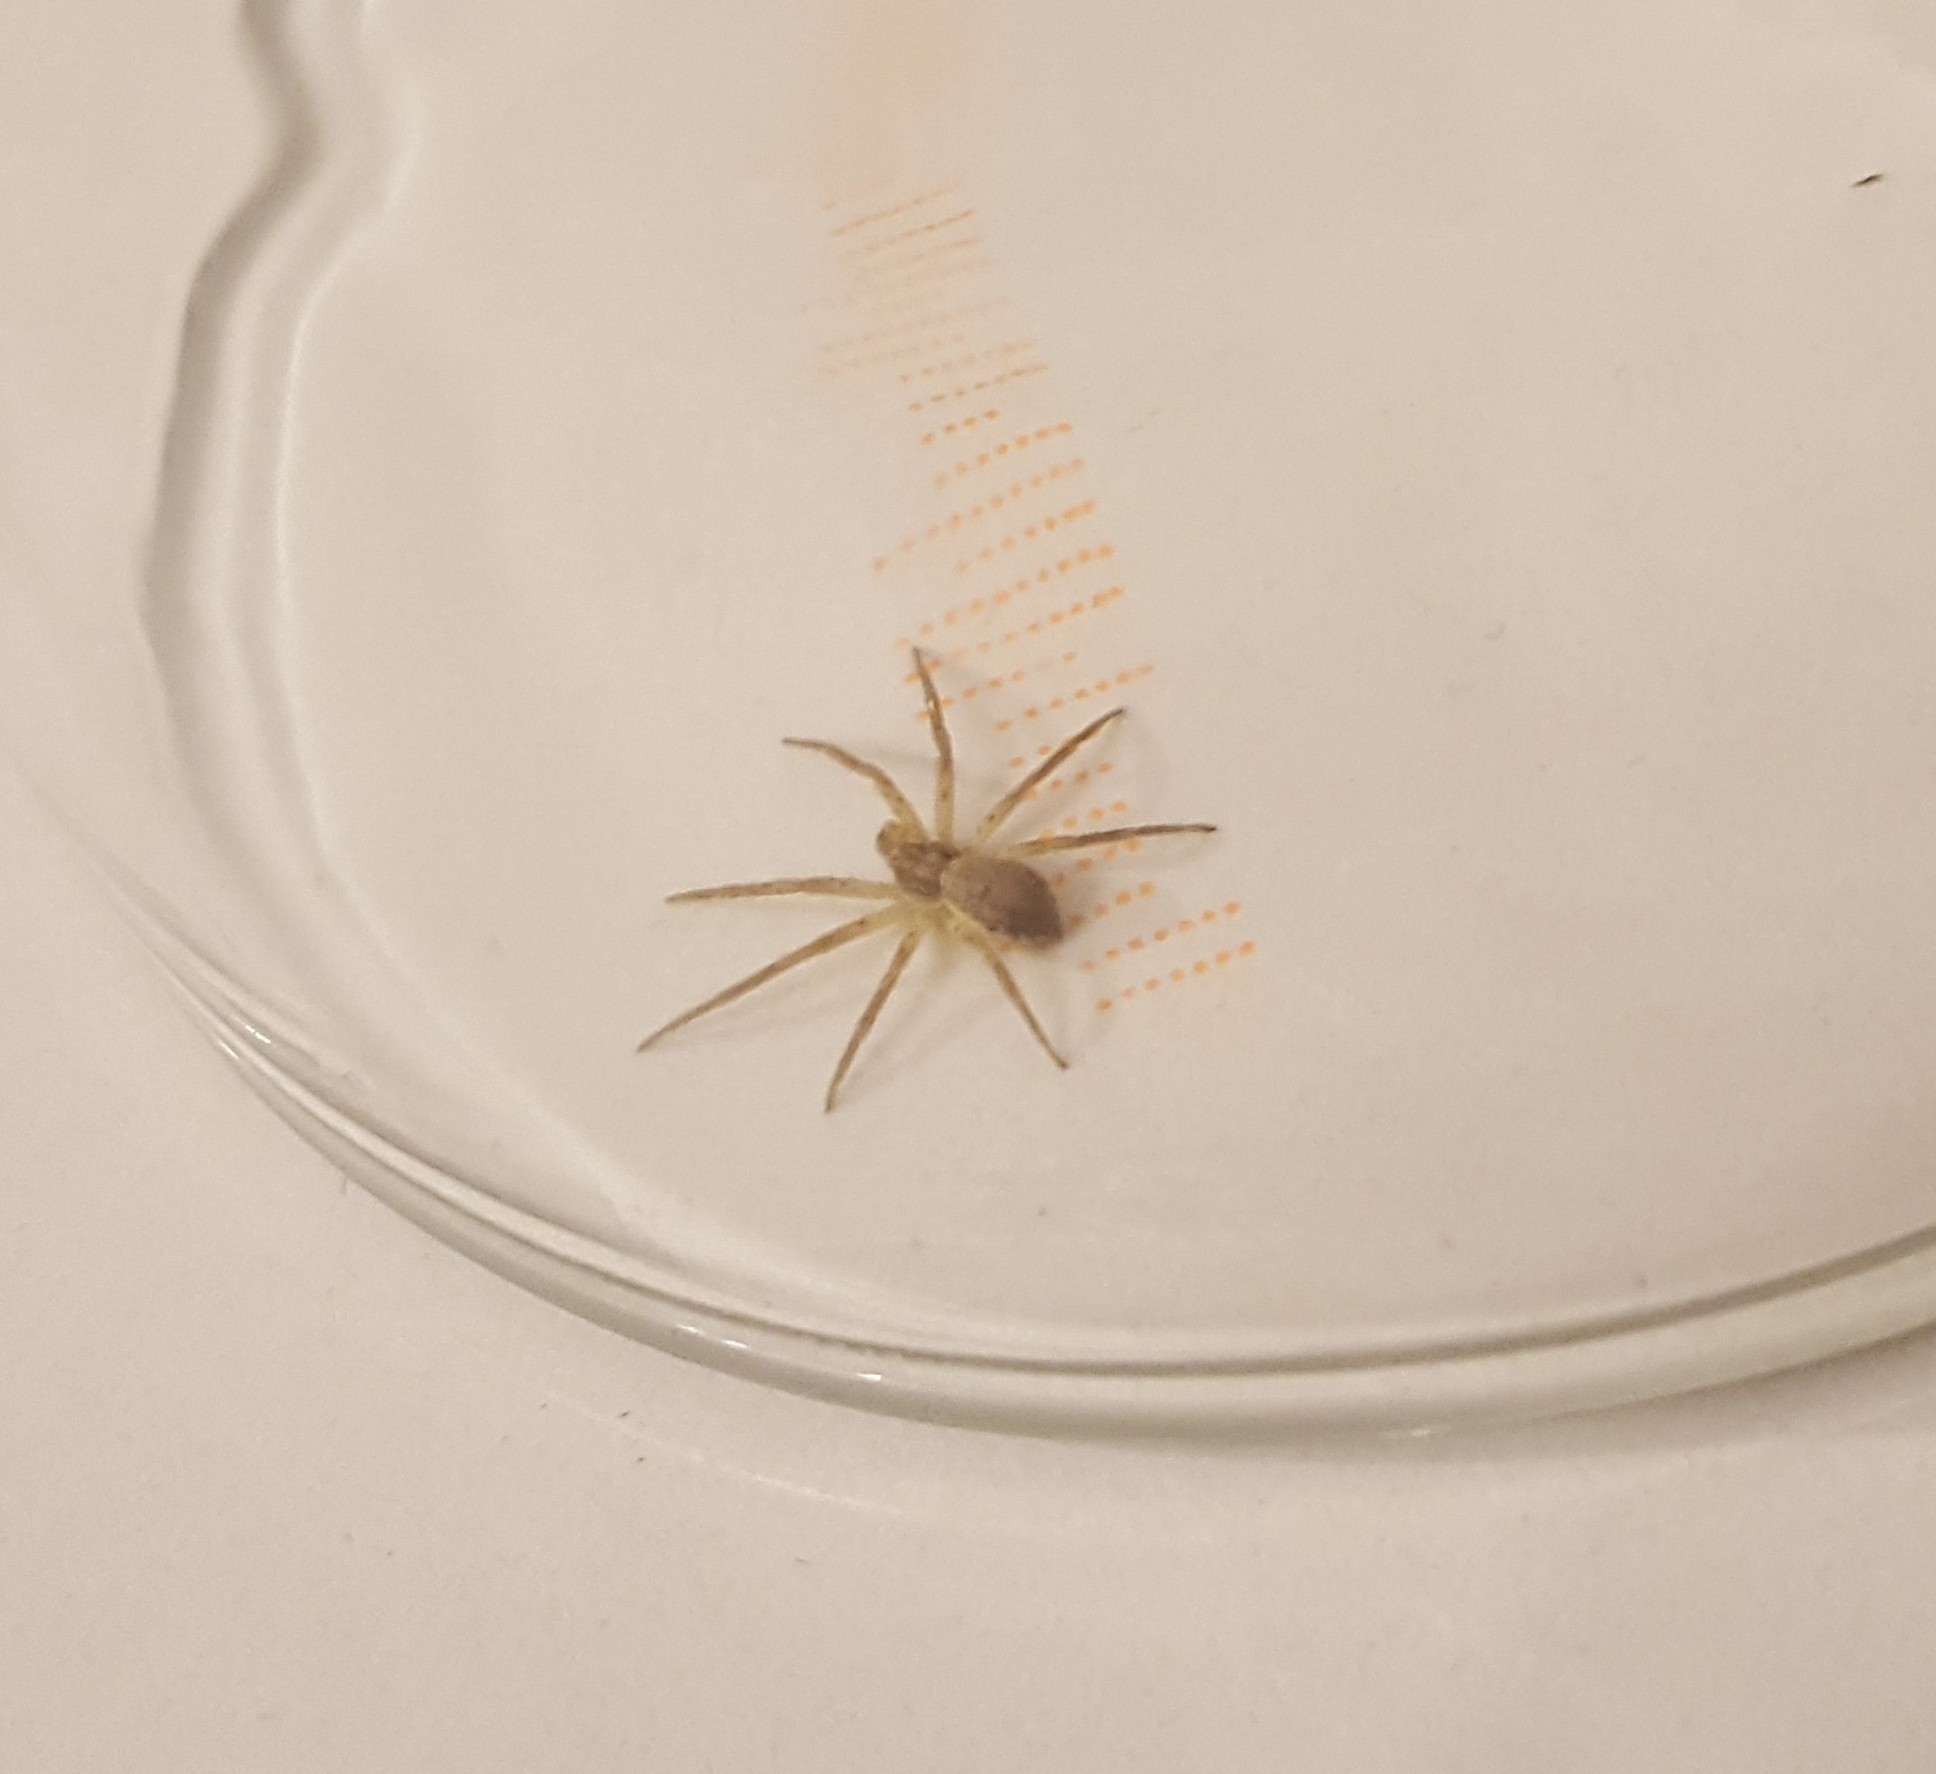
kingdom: Animalia
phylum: Arthropoda
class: Arachnida
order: Araneae
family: Philodromidae
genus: Philodromus
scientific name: Philodromus dispar
